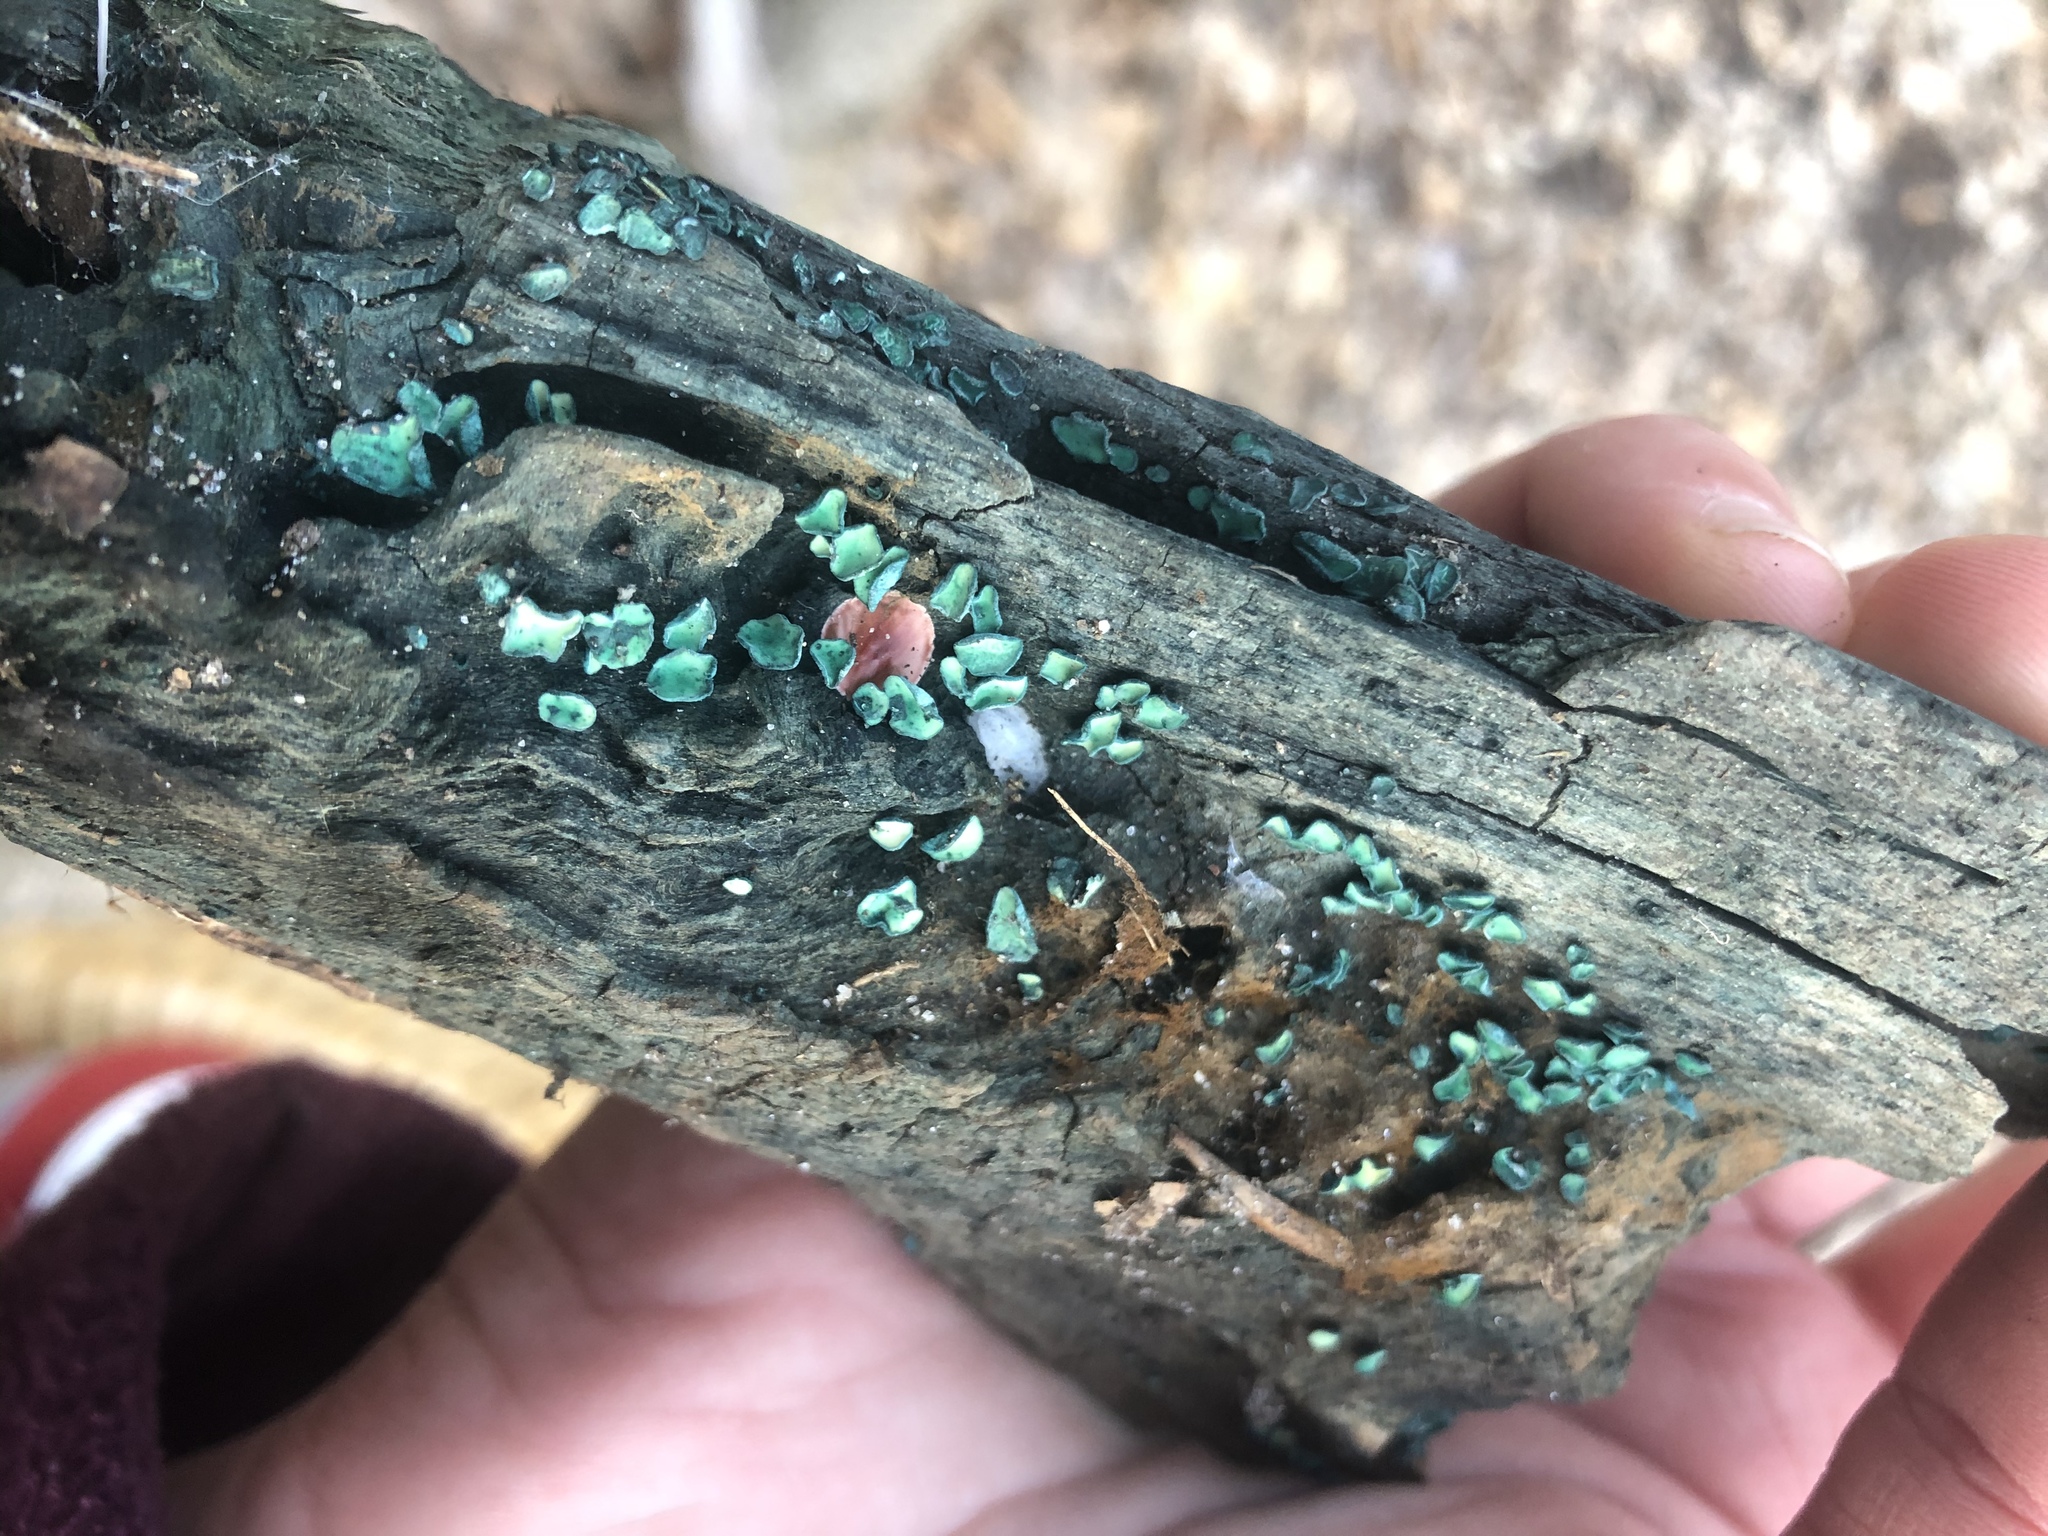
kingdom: Fungi
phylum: Ascomycota
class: Leotiomycetes
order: Helotiales
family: Chlorociboriaceae
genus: Chlorociboria
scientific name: Chlorociboria aeruginosa
